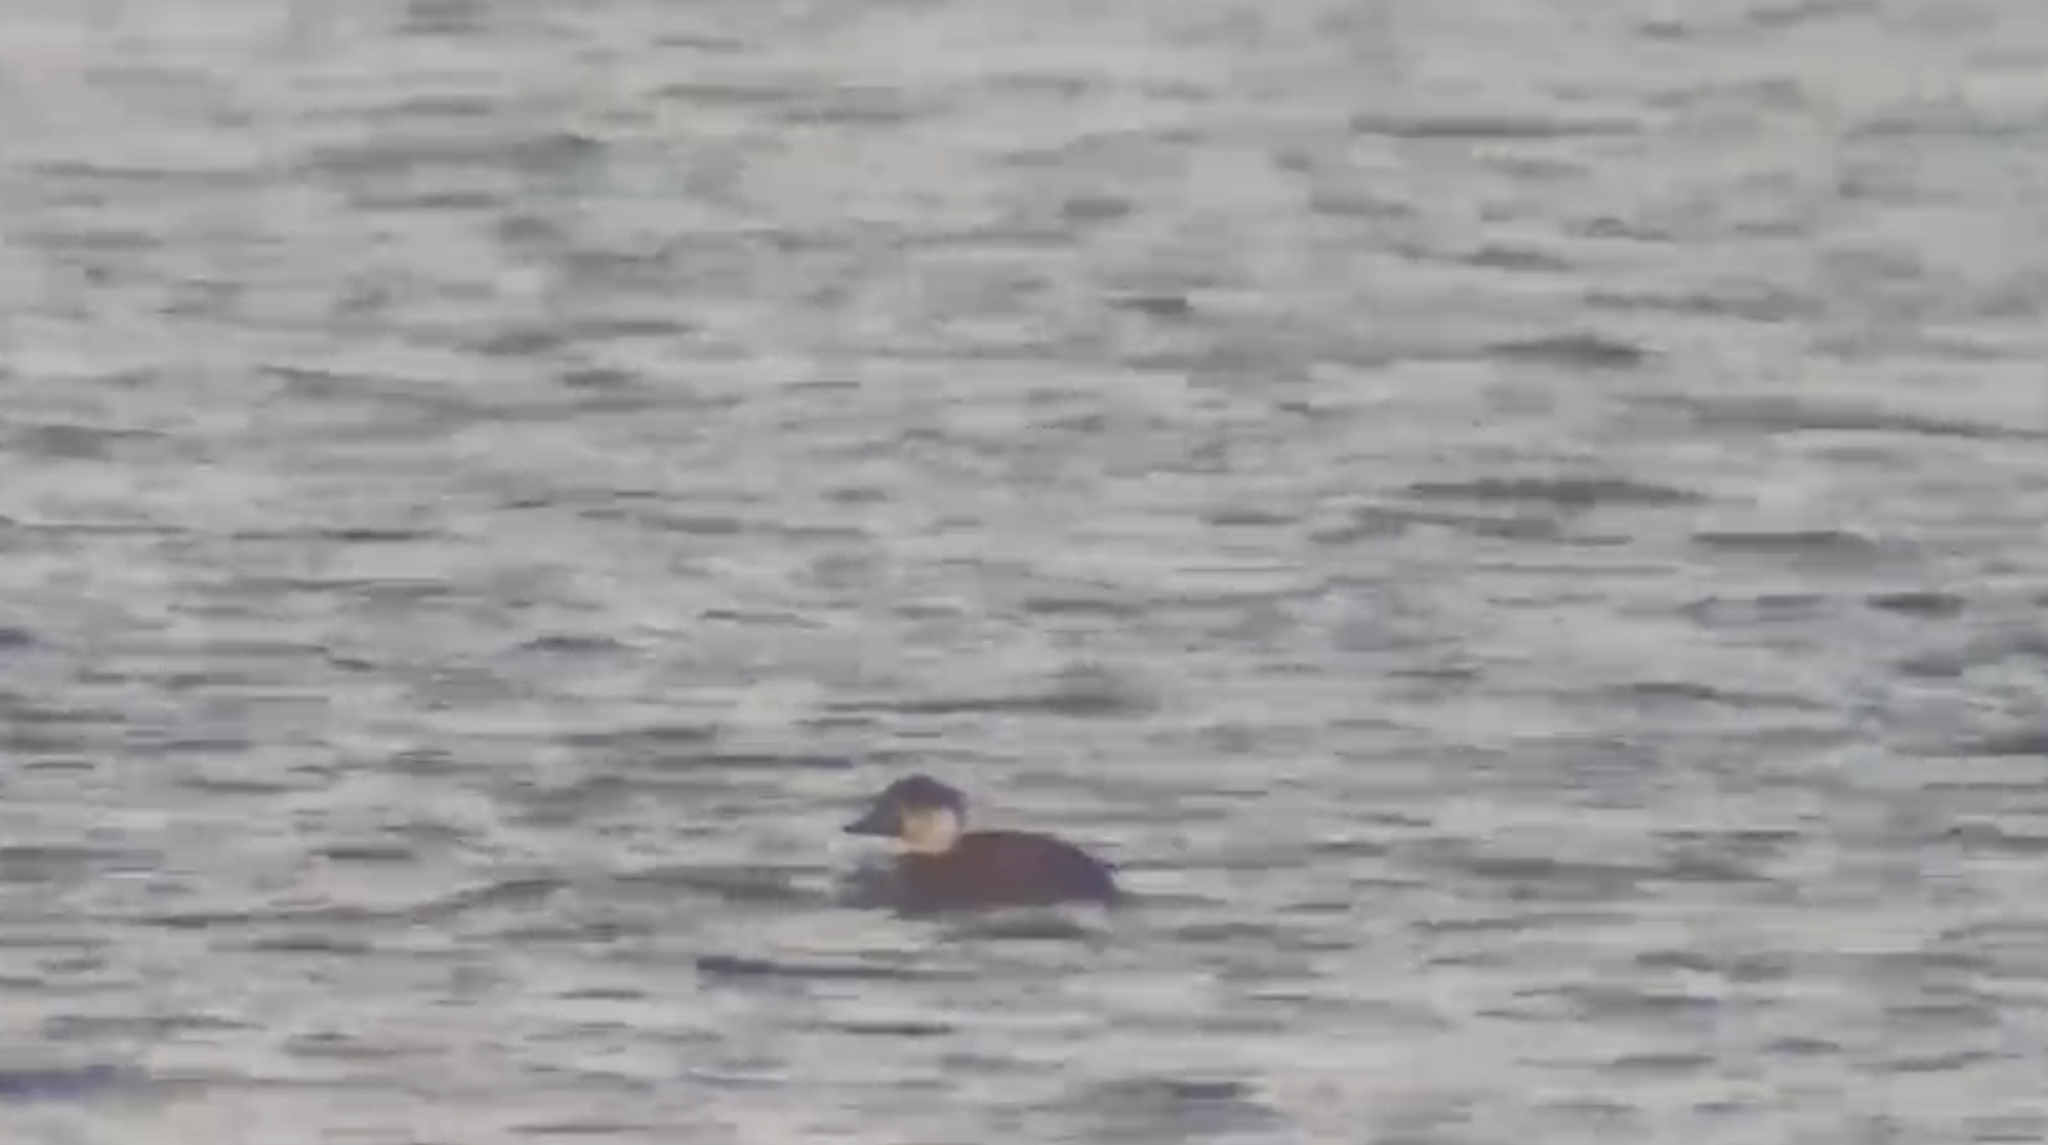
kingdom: Animalia
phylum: Chordata
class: Aves
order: Anseriformes
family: Anatidae
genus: Melanitta
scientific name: Melanitta nigra
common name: Common scoter
